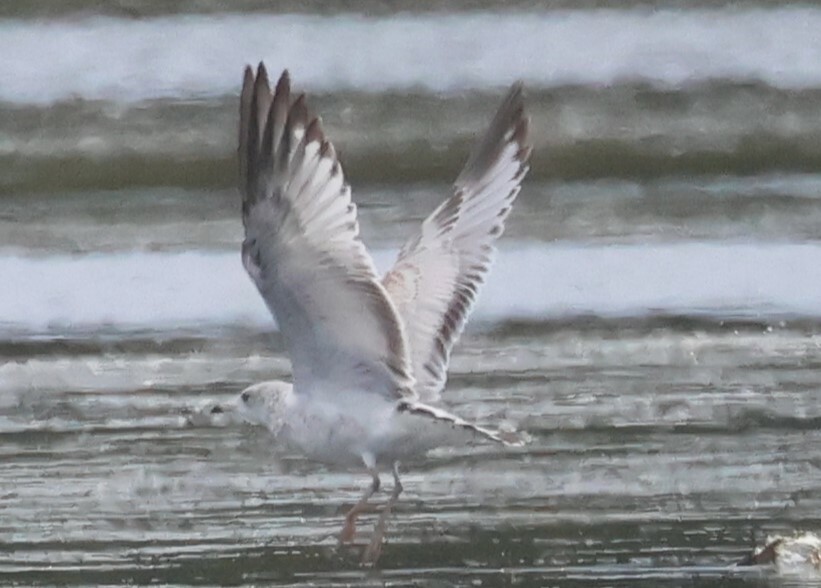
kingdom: Animalia
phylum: Chordata
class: Aves
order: Charadriiformes
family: Laridae
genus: Larus
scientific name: Larus delawarensis
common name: Ring-billed gull
